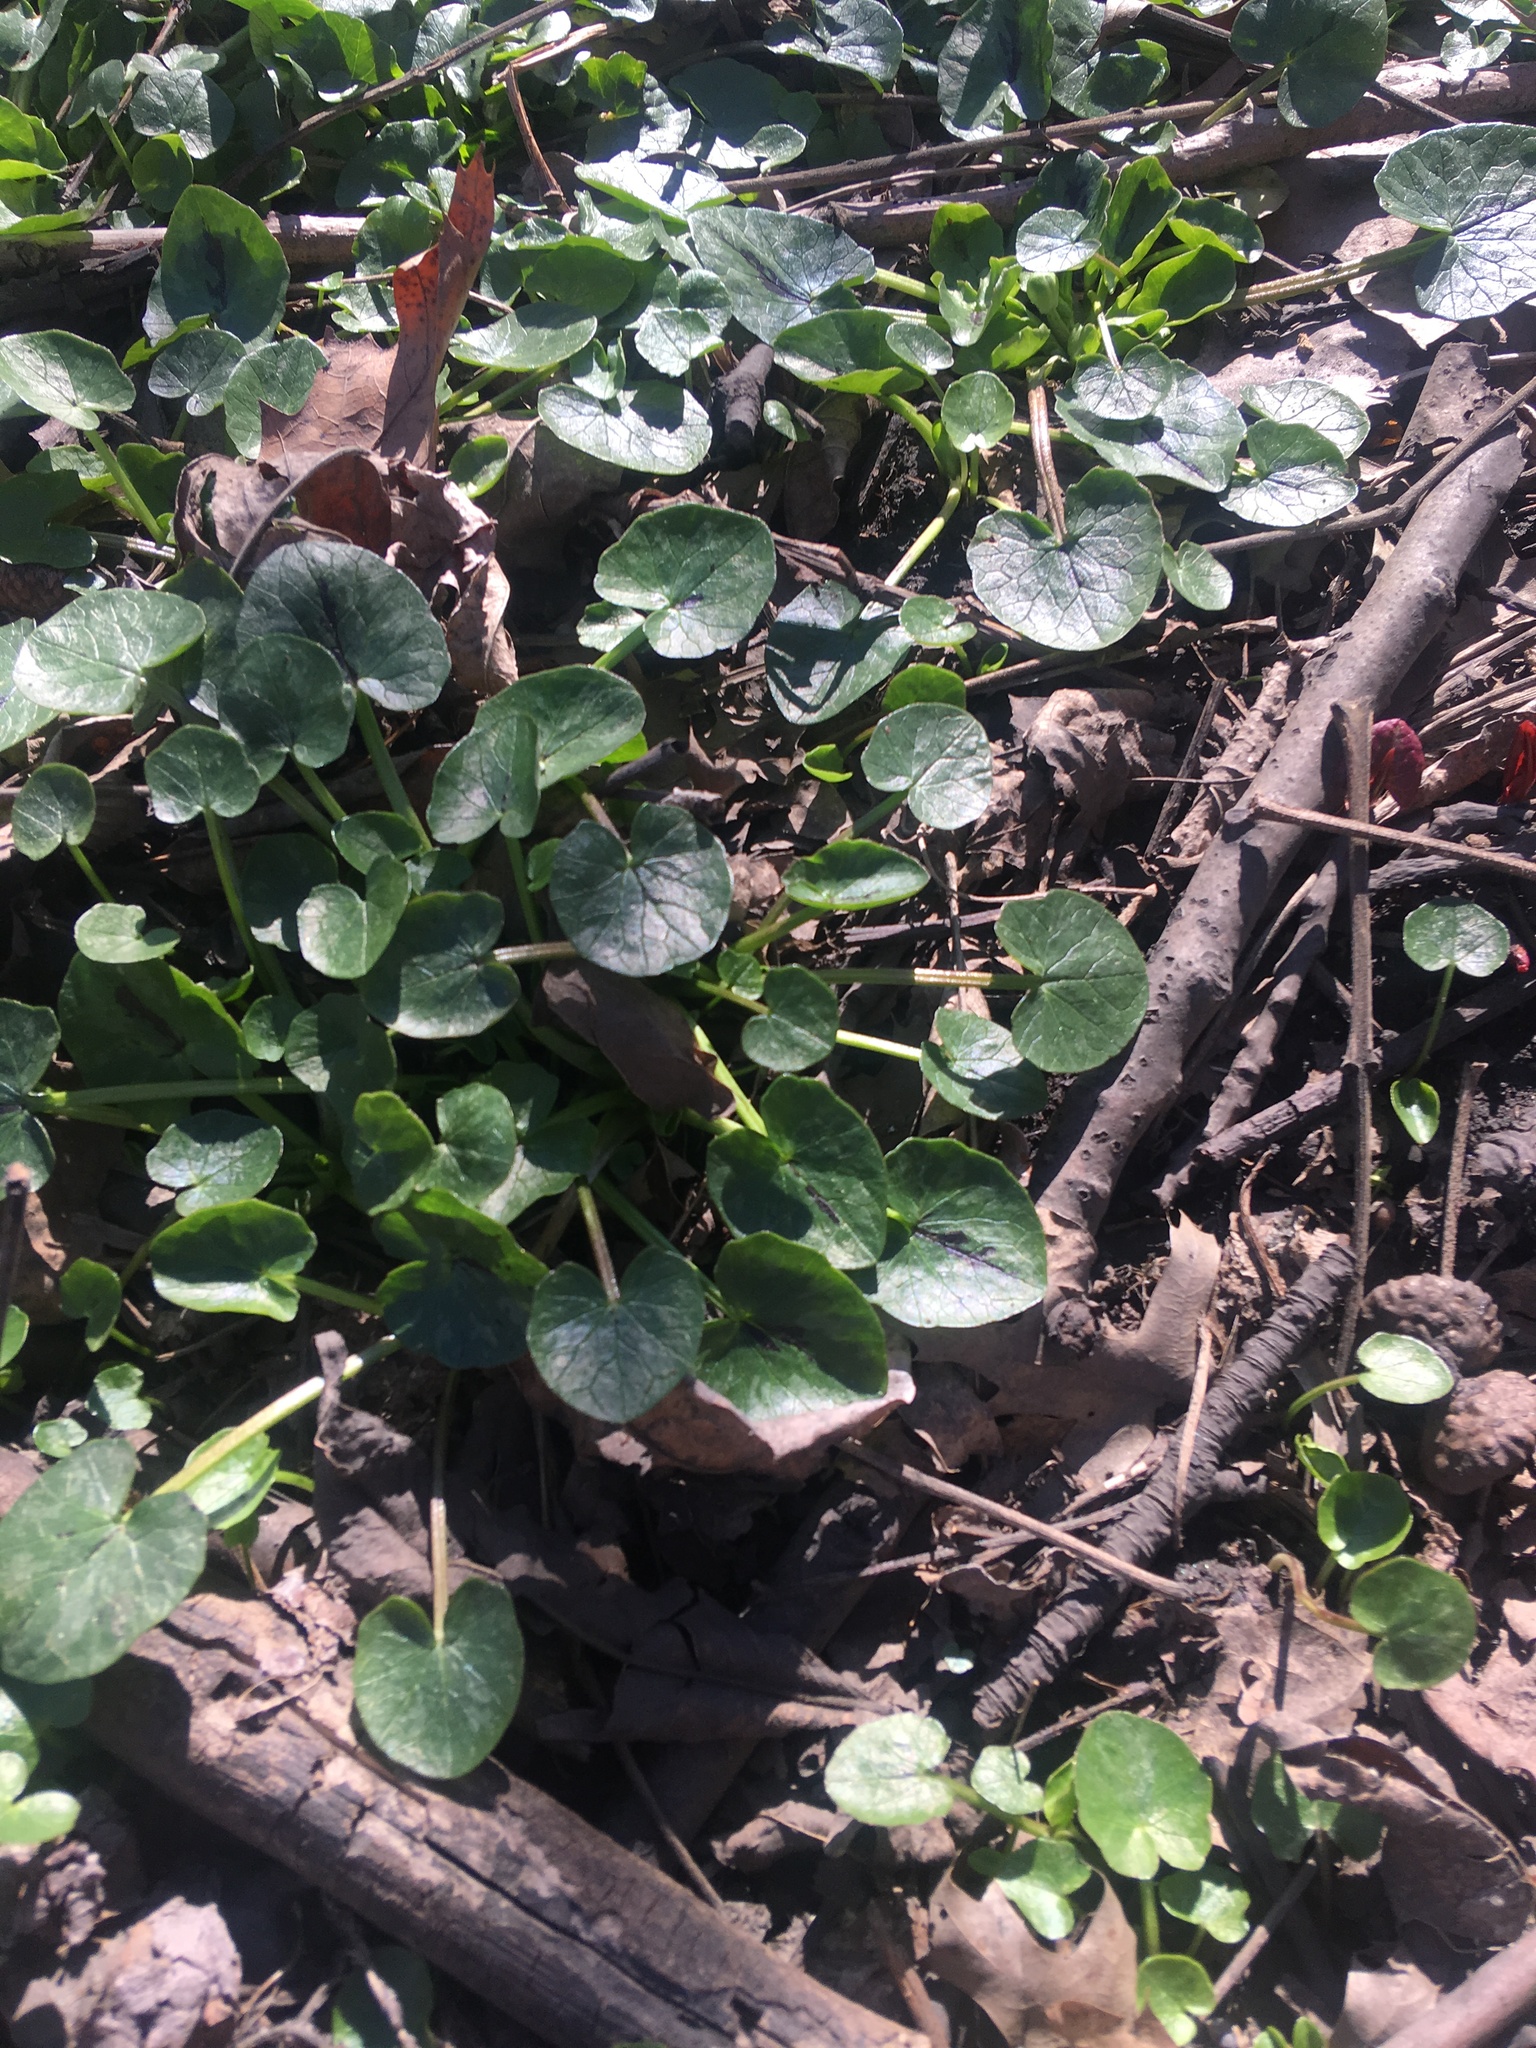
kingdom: Plantae
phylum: Tracheophyta
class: Magnoliopsida
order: Ranunculales
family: Ranunculaceae
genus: Ficaria
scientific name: Ficaria verna
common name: Lesser celandine
